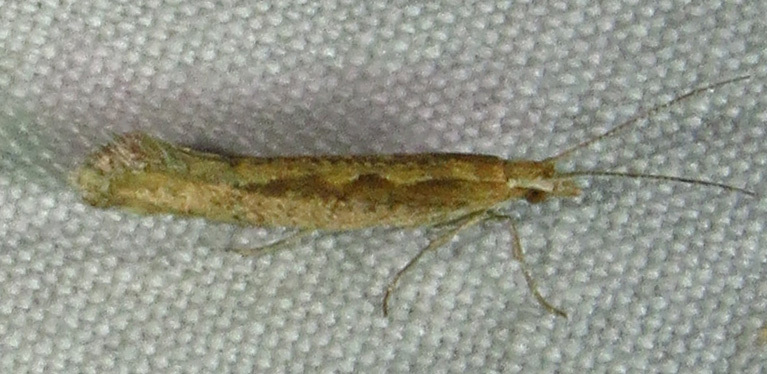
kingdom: Animalia
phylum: Arthropoda
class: Insecta
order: Lepidoptera
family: Plutellidae
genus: Plutella
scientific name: Plutella xylostella
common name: Diamond-back moth
